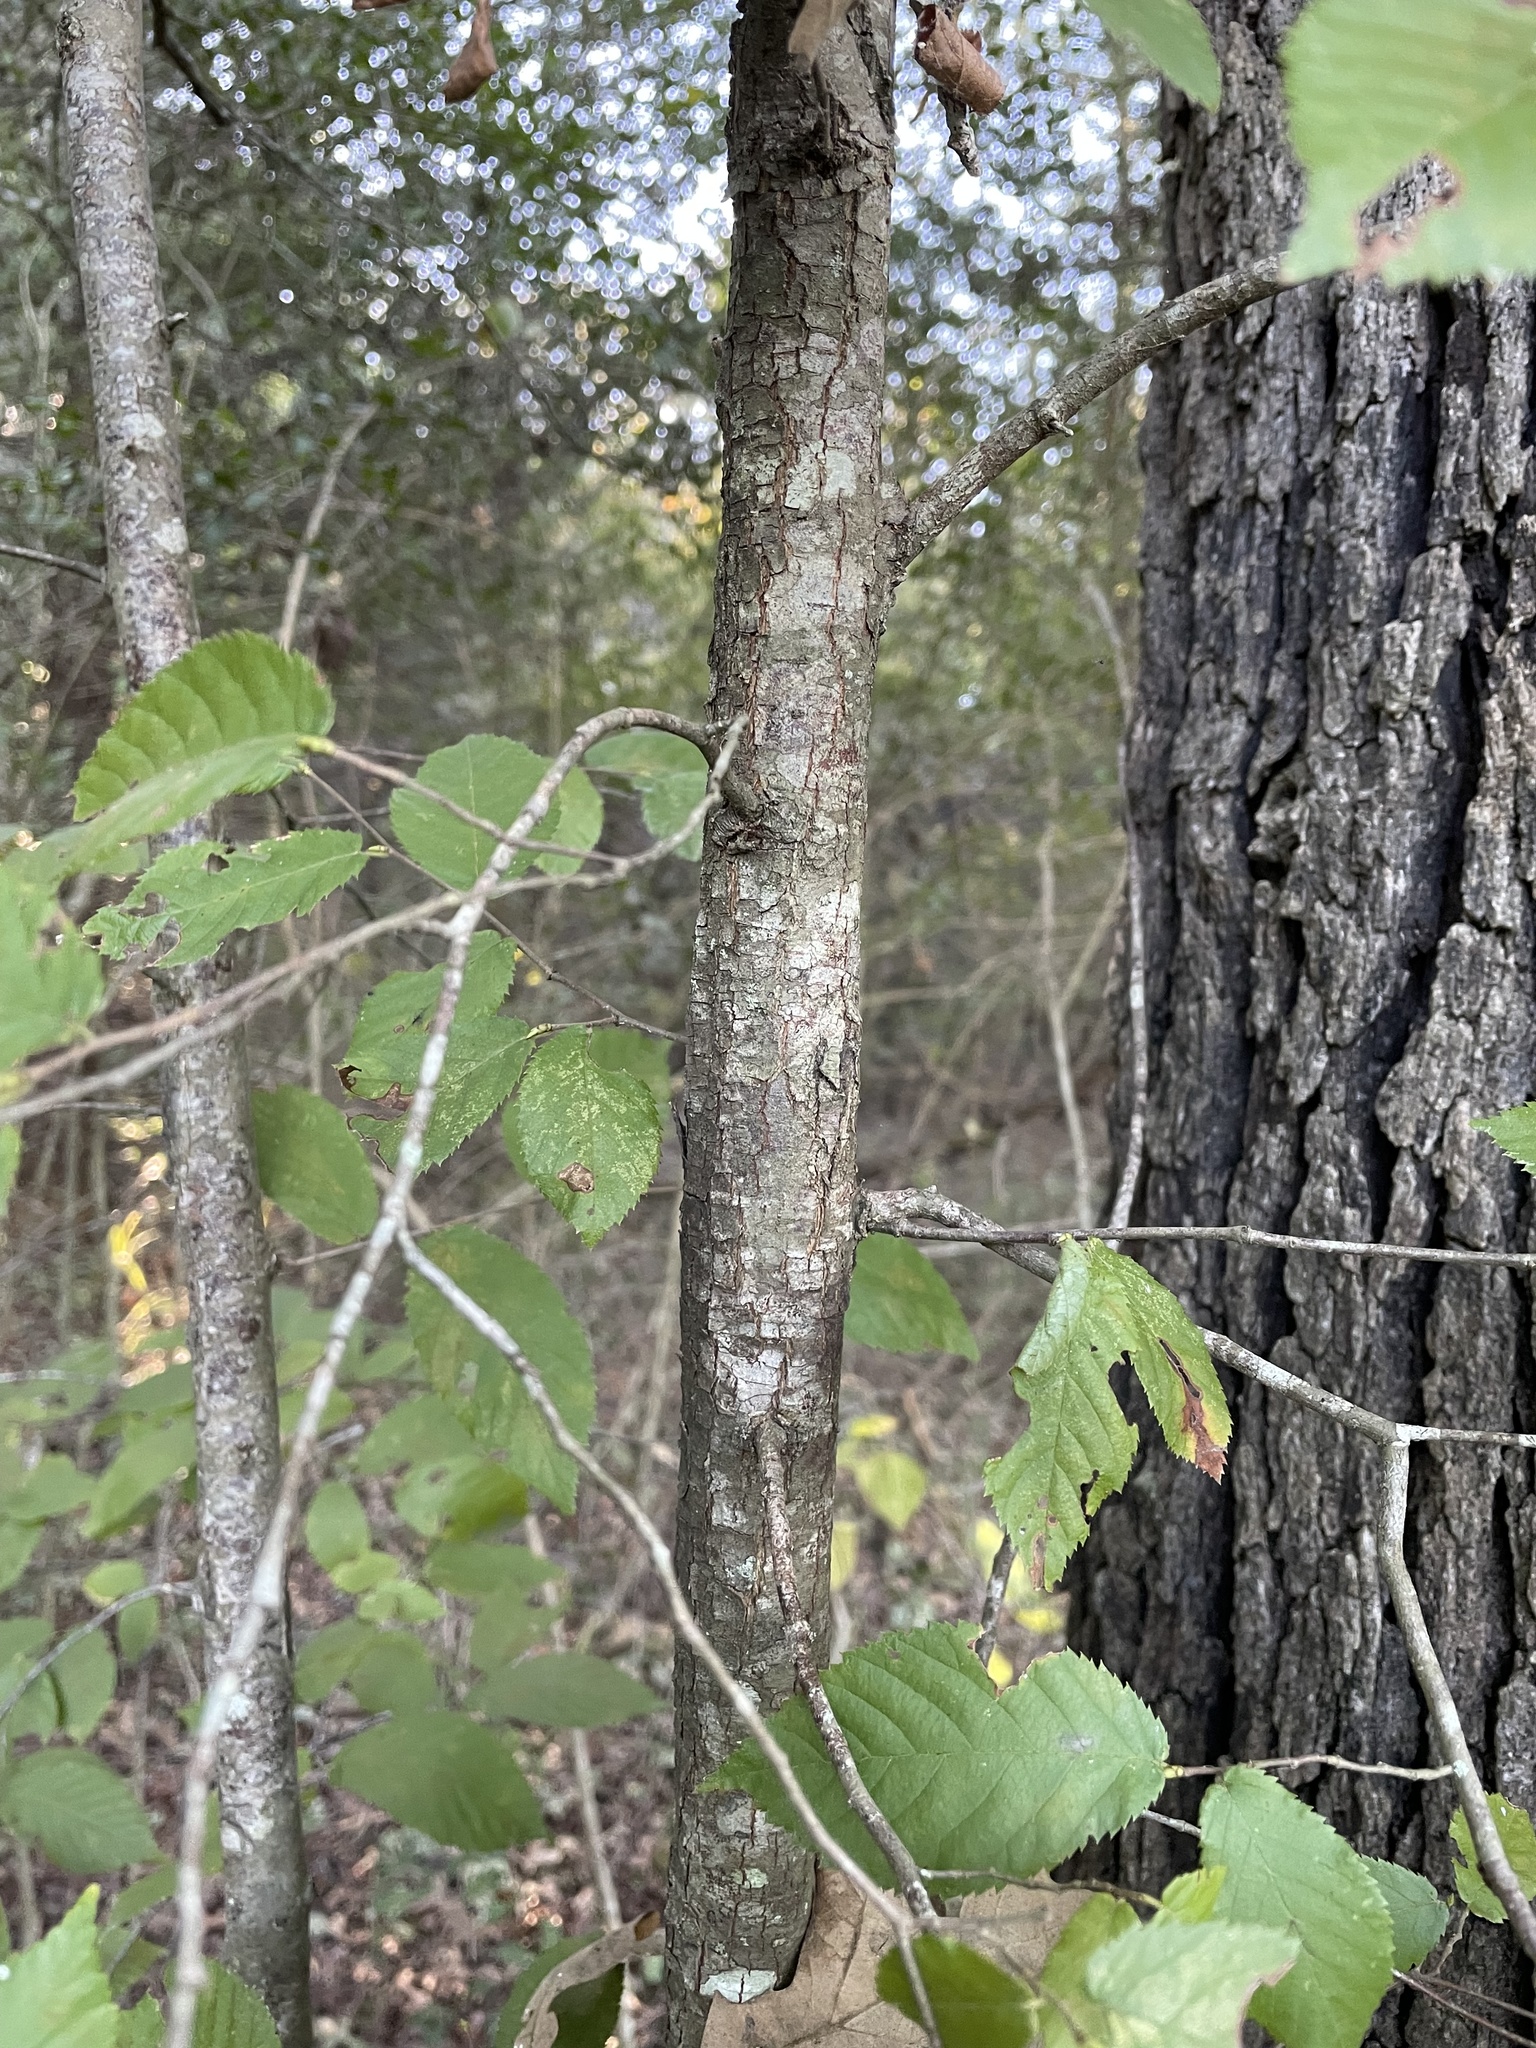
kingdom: Plantae
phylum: Tracheophyta
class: Magnoliopsida
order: Fagales
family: Betulaceae
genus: Ostrya
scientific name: Ostrya virginiana
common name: Ironwood
